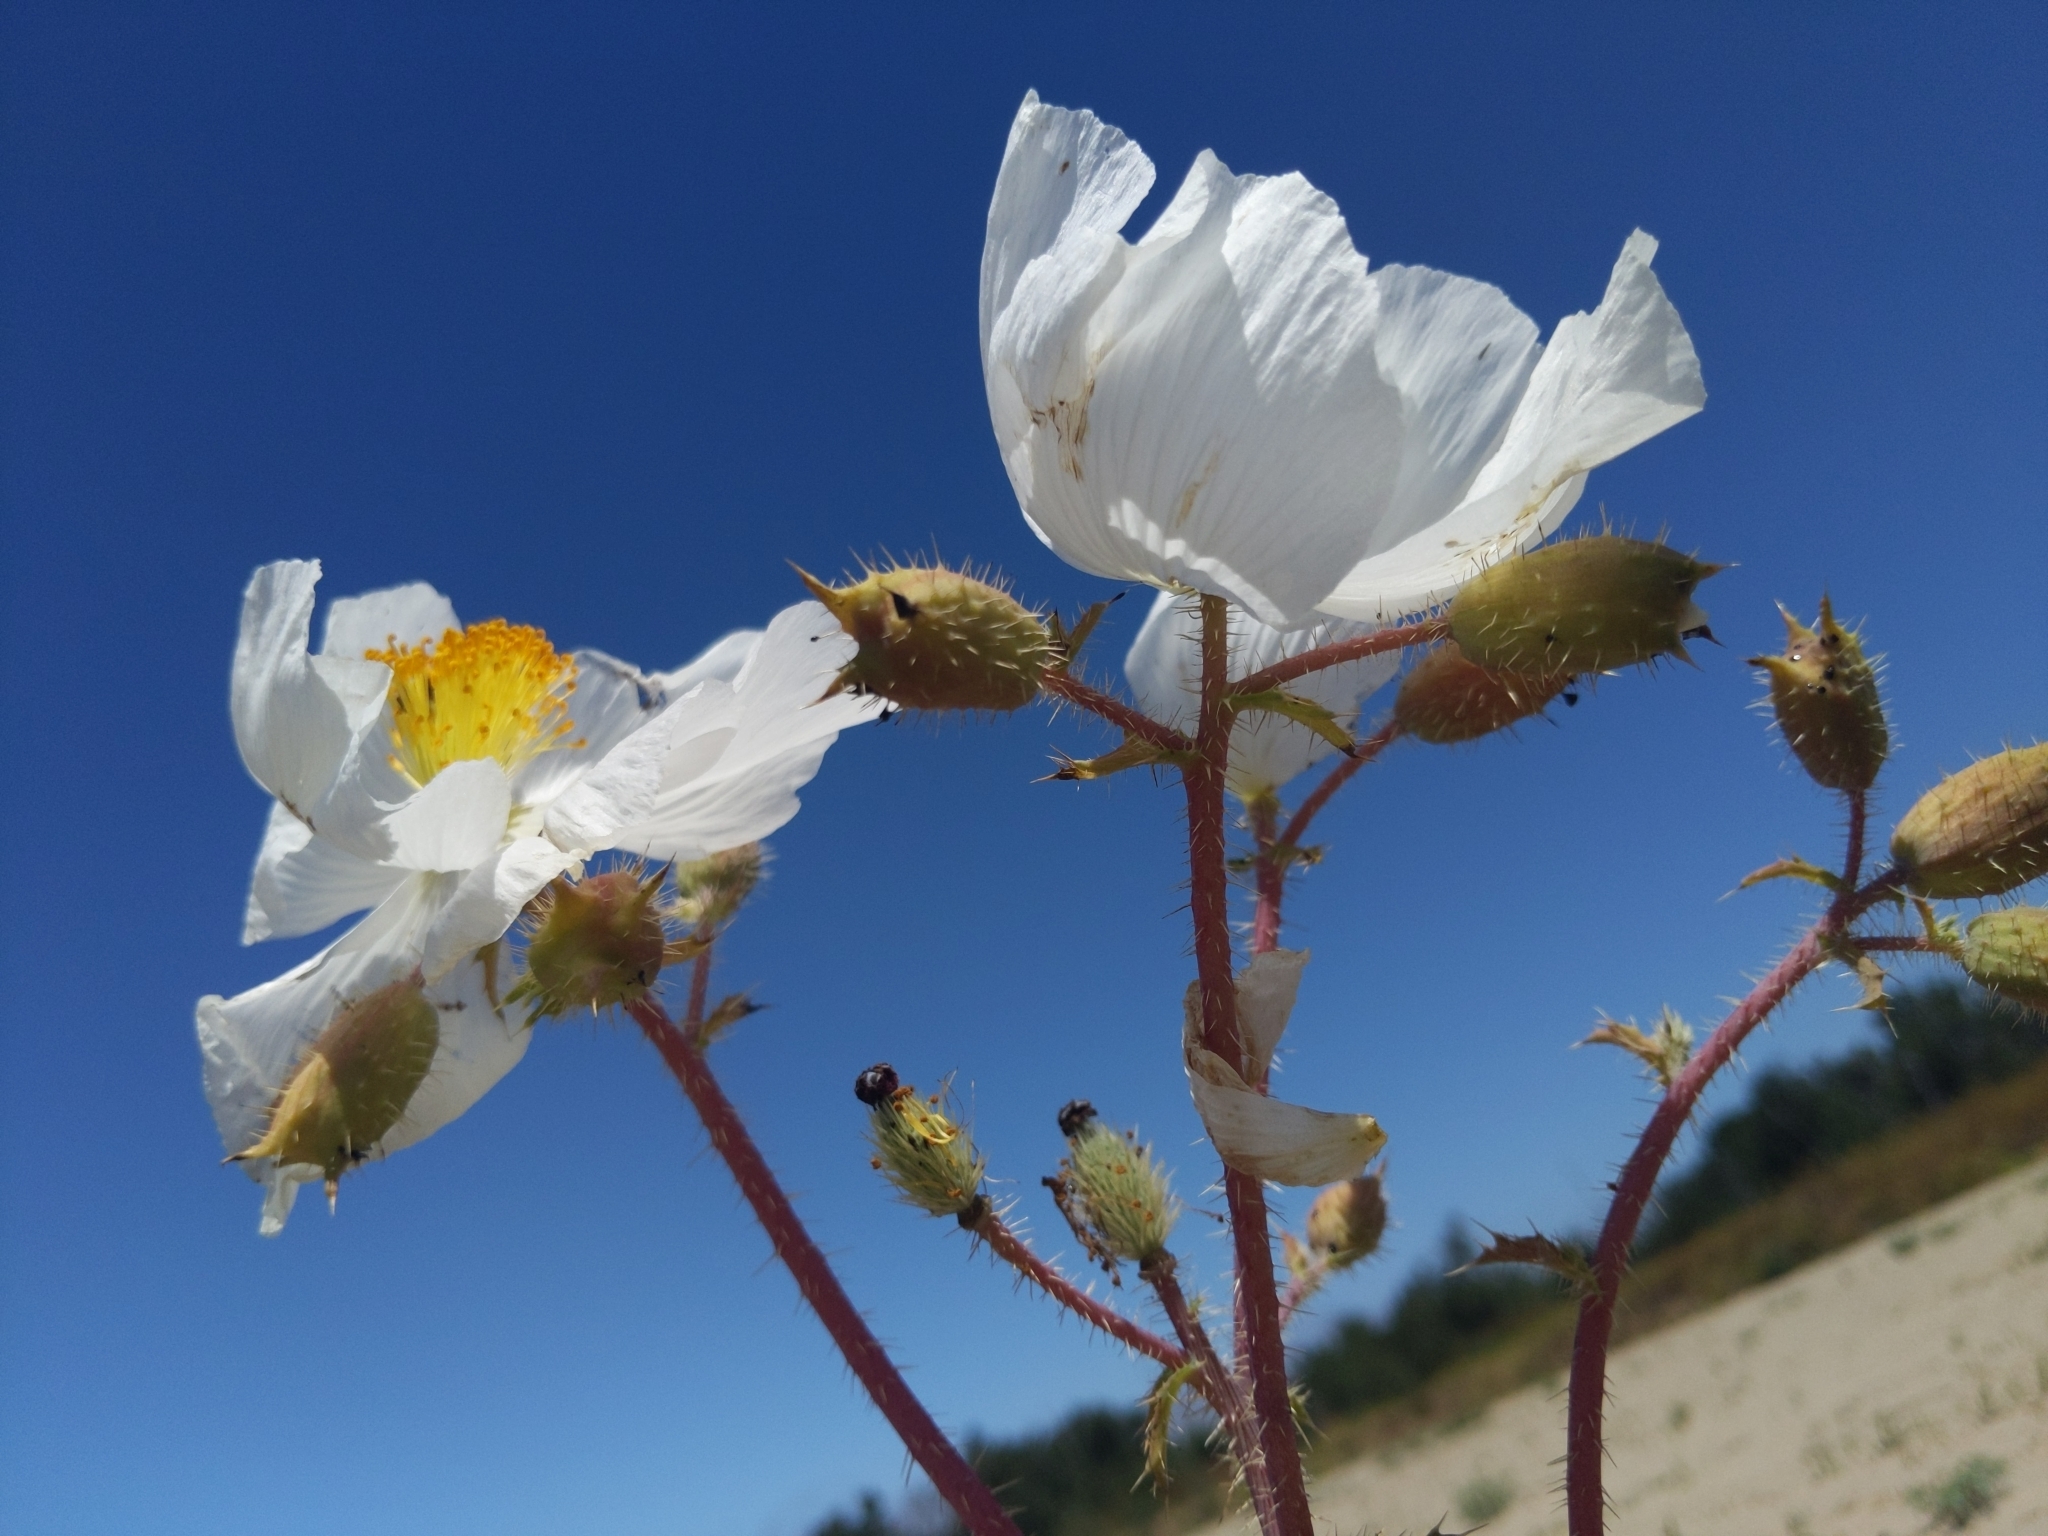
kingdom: Plantae
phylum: Tracheophyta
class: Magnoliopsida
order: Ranunculales
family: Papaveraceae
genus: Argemone
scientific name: Argemone munita
